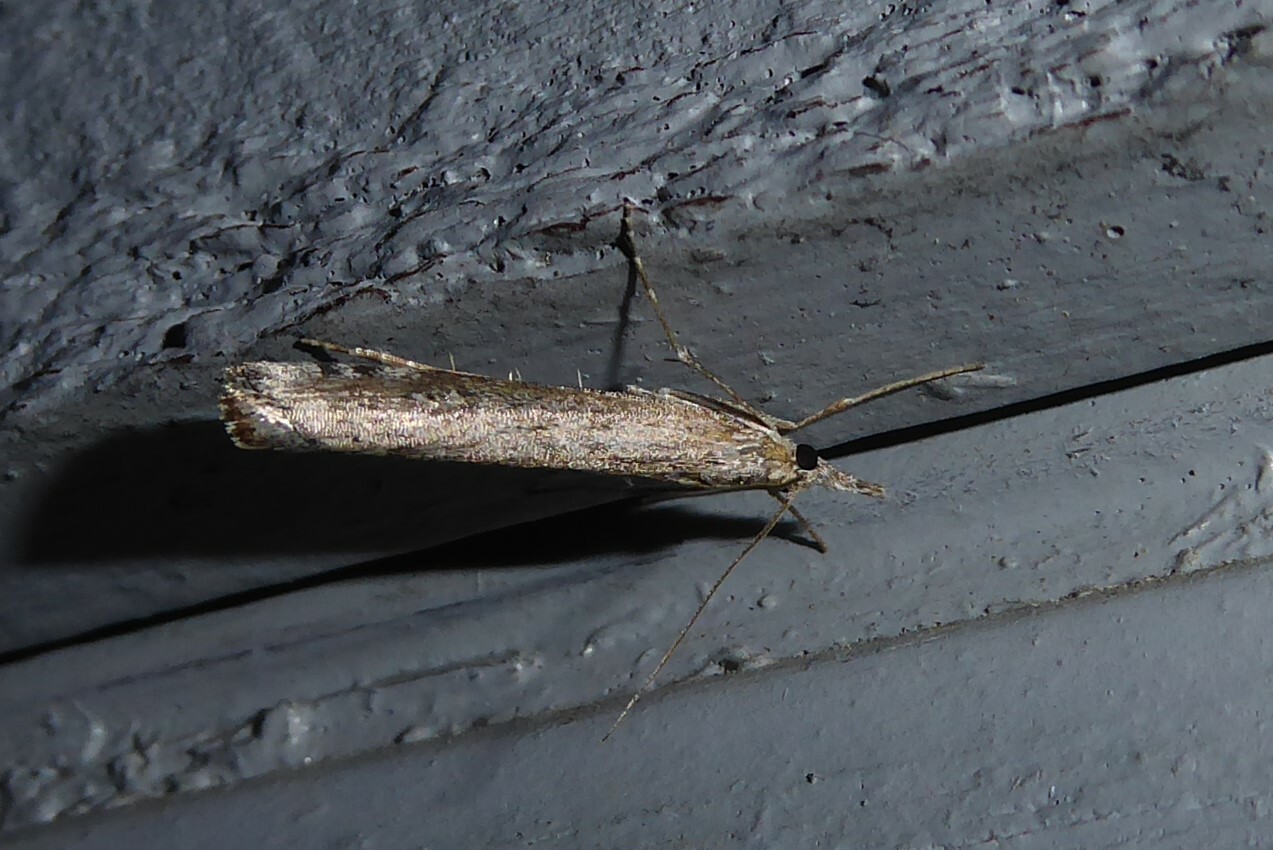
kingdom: Animalia
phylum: Arthropoda
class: Insecta
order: Lepidoptera
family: Crambidae
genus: Orocrambus
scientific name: Orocrambus cyclopicus
